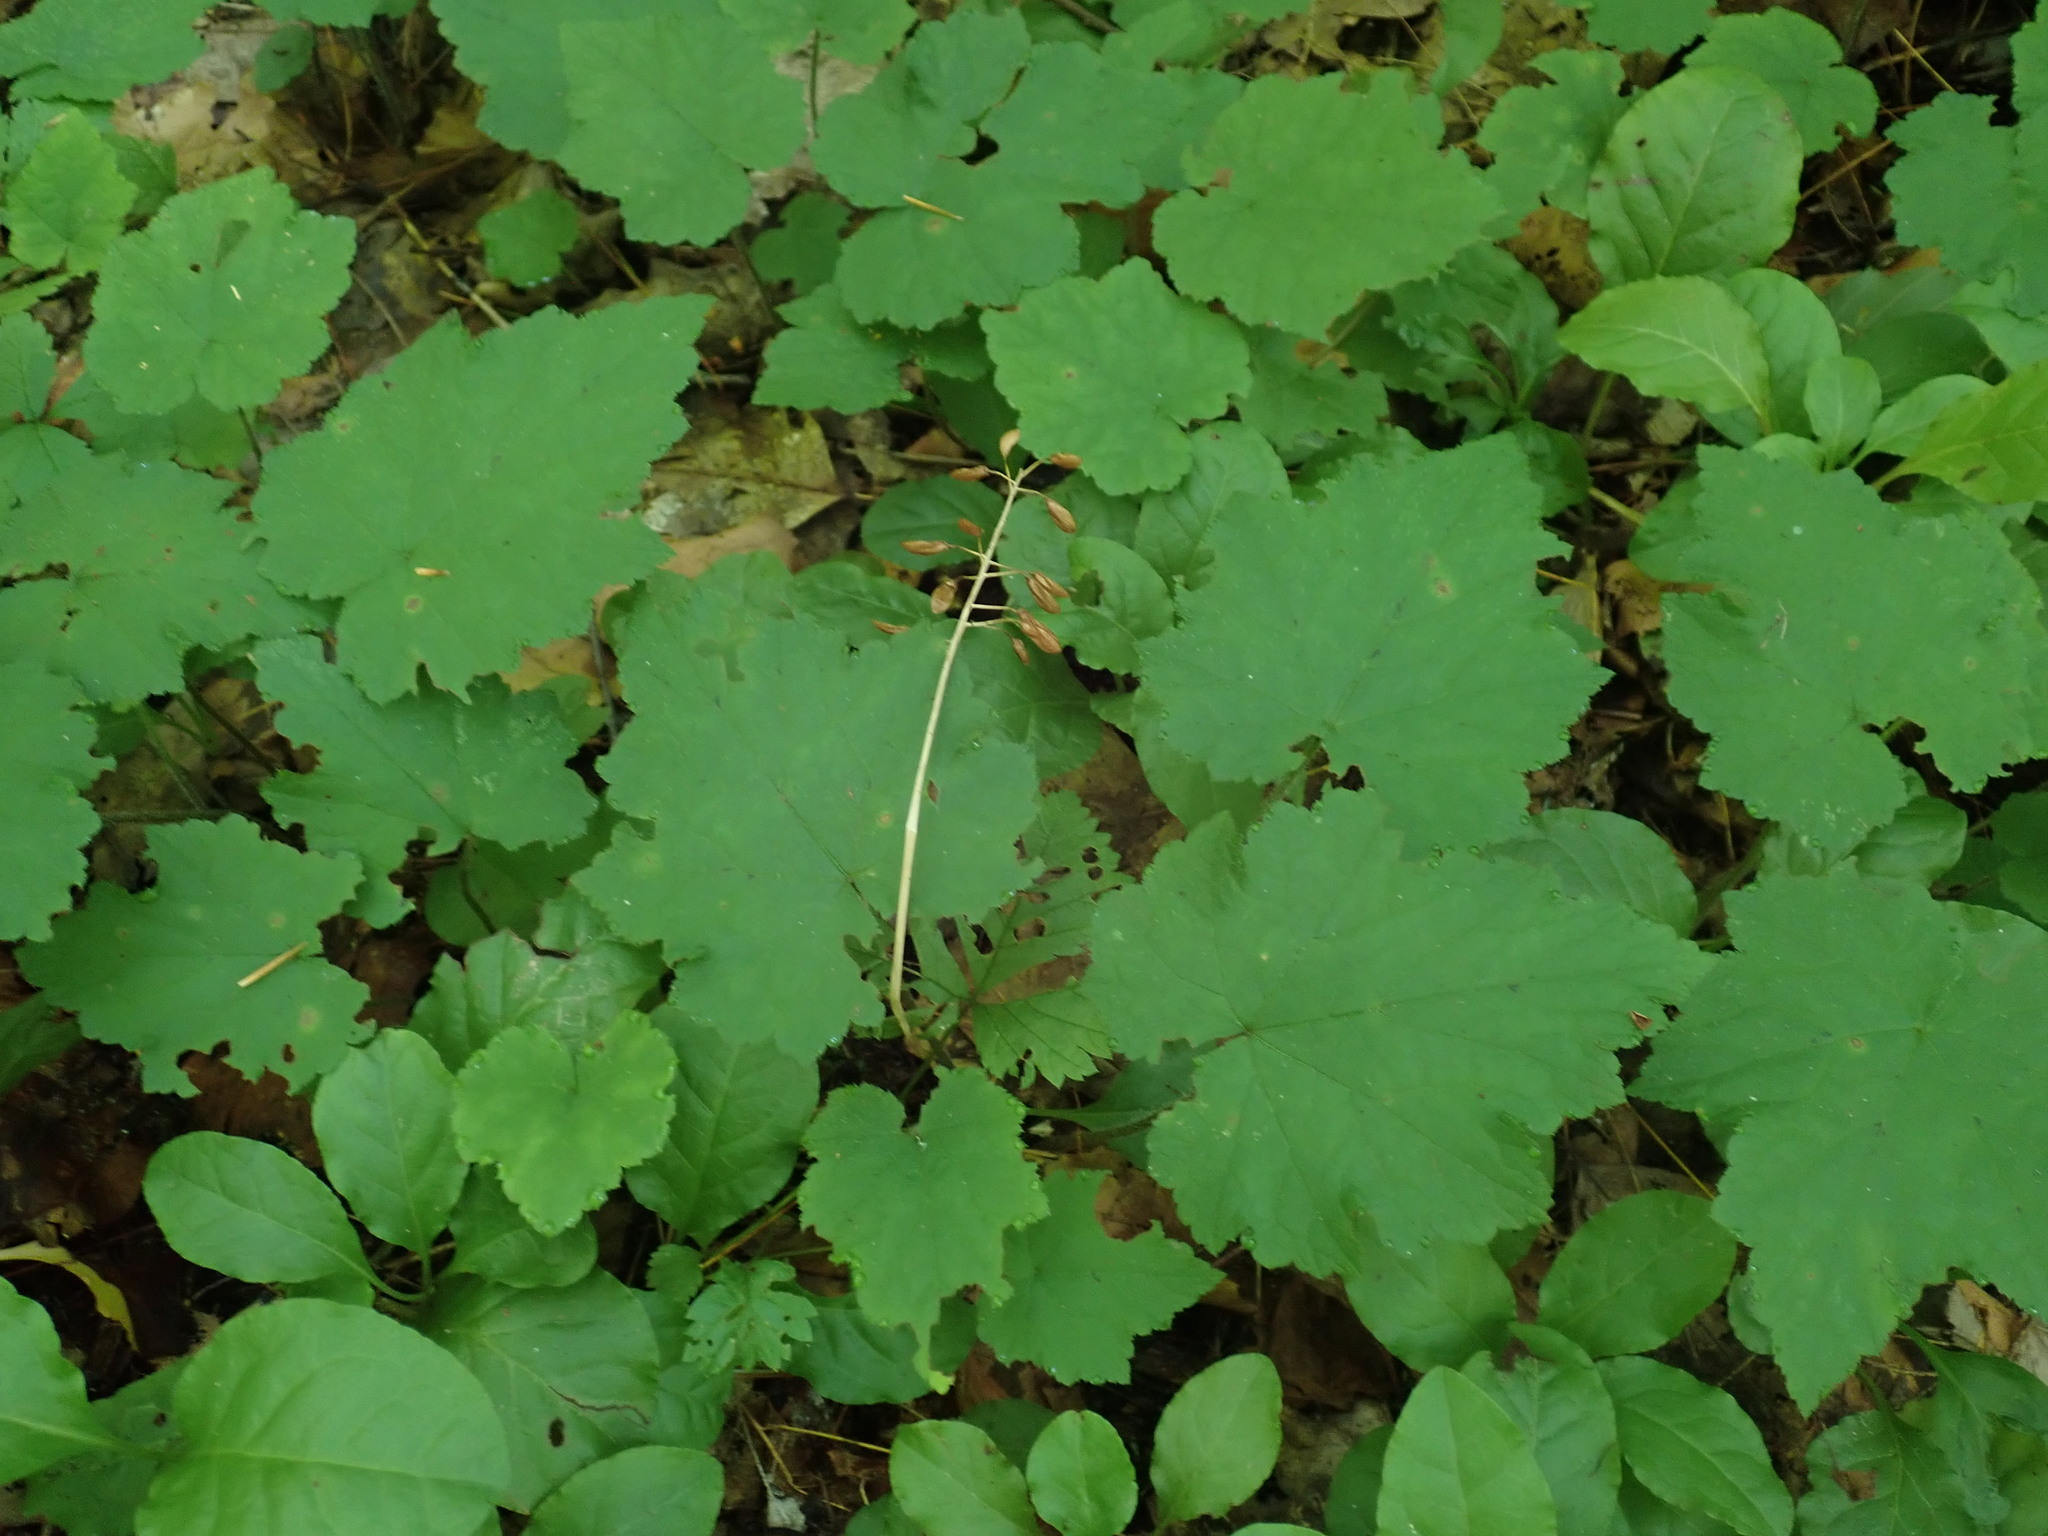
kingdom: Plantae
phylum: Tracheophyta
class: Magnoliopsida
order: Saxifragales
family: Saxifragaceae
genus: Tiarella
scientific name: Tiarella stolonifera
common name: Stoloniferous foamflower
